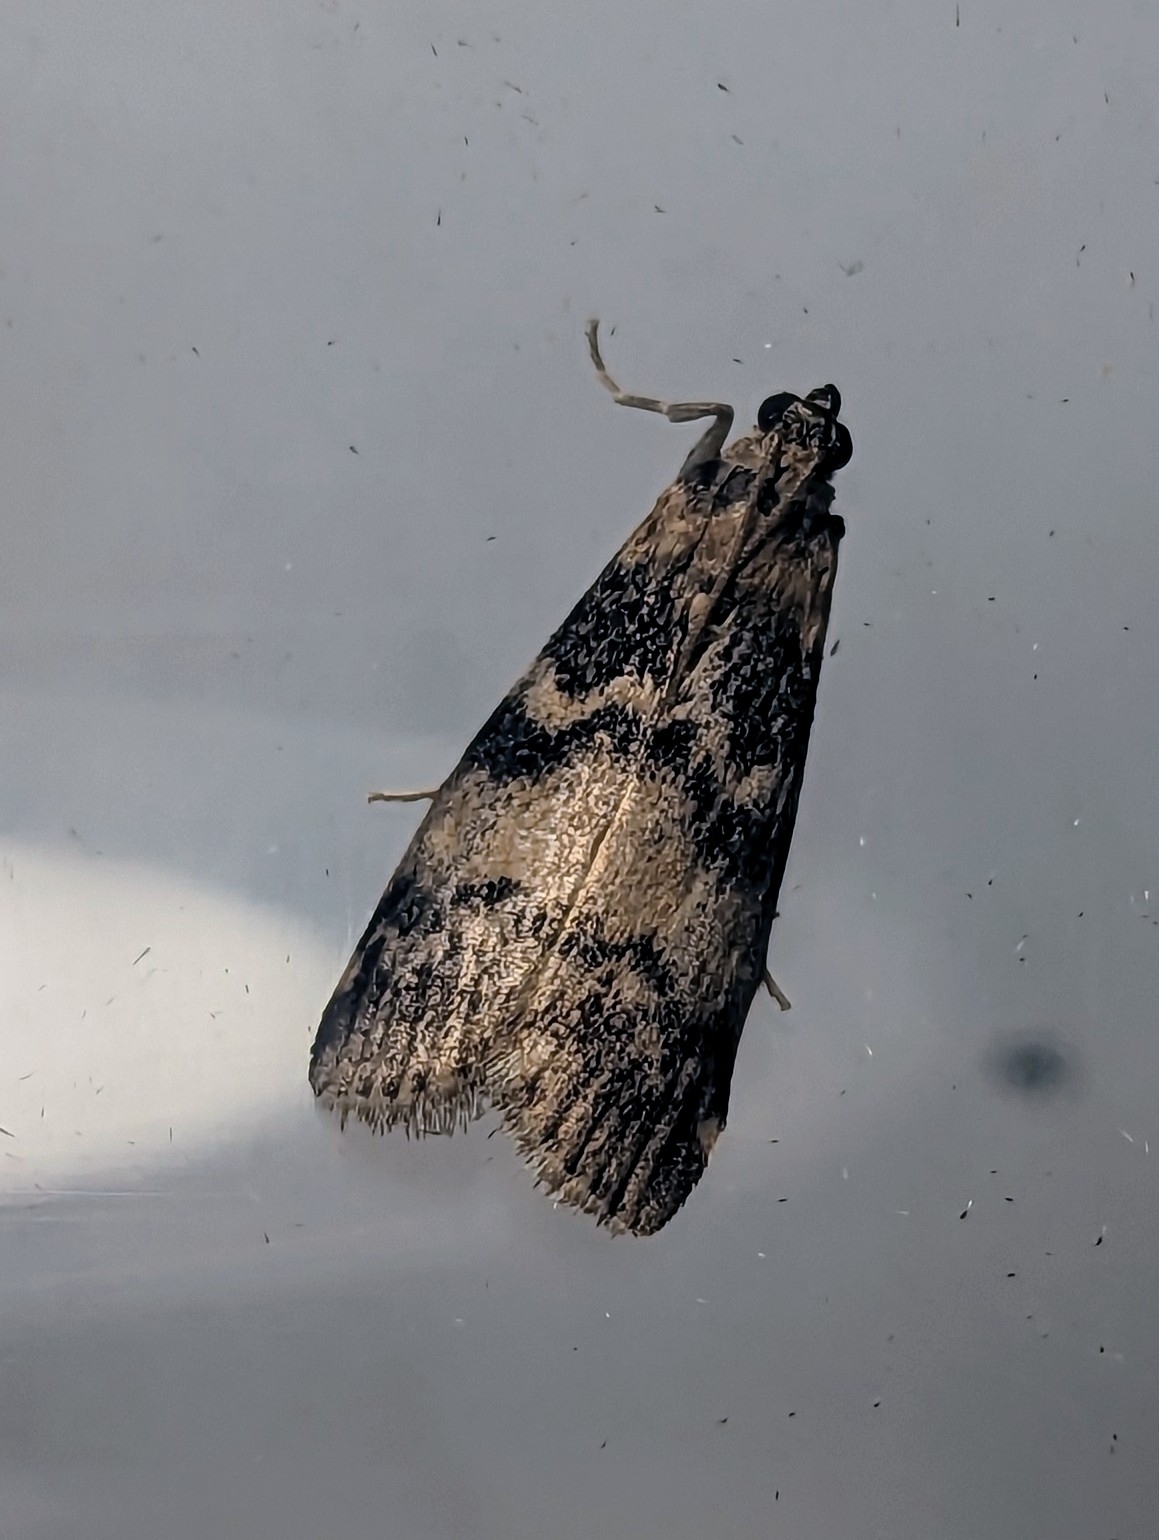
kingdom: Animalia
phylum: Arthropoda
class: Insecta
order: Lepidoptera
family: Pyralidae
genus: Euzophera
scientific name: Euzophera pinguis
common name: Ash-bark knot-horn
